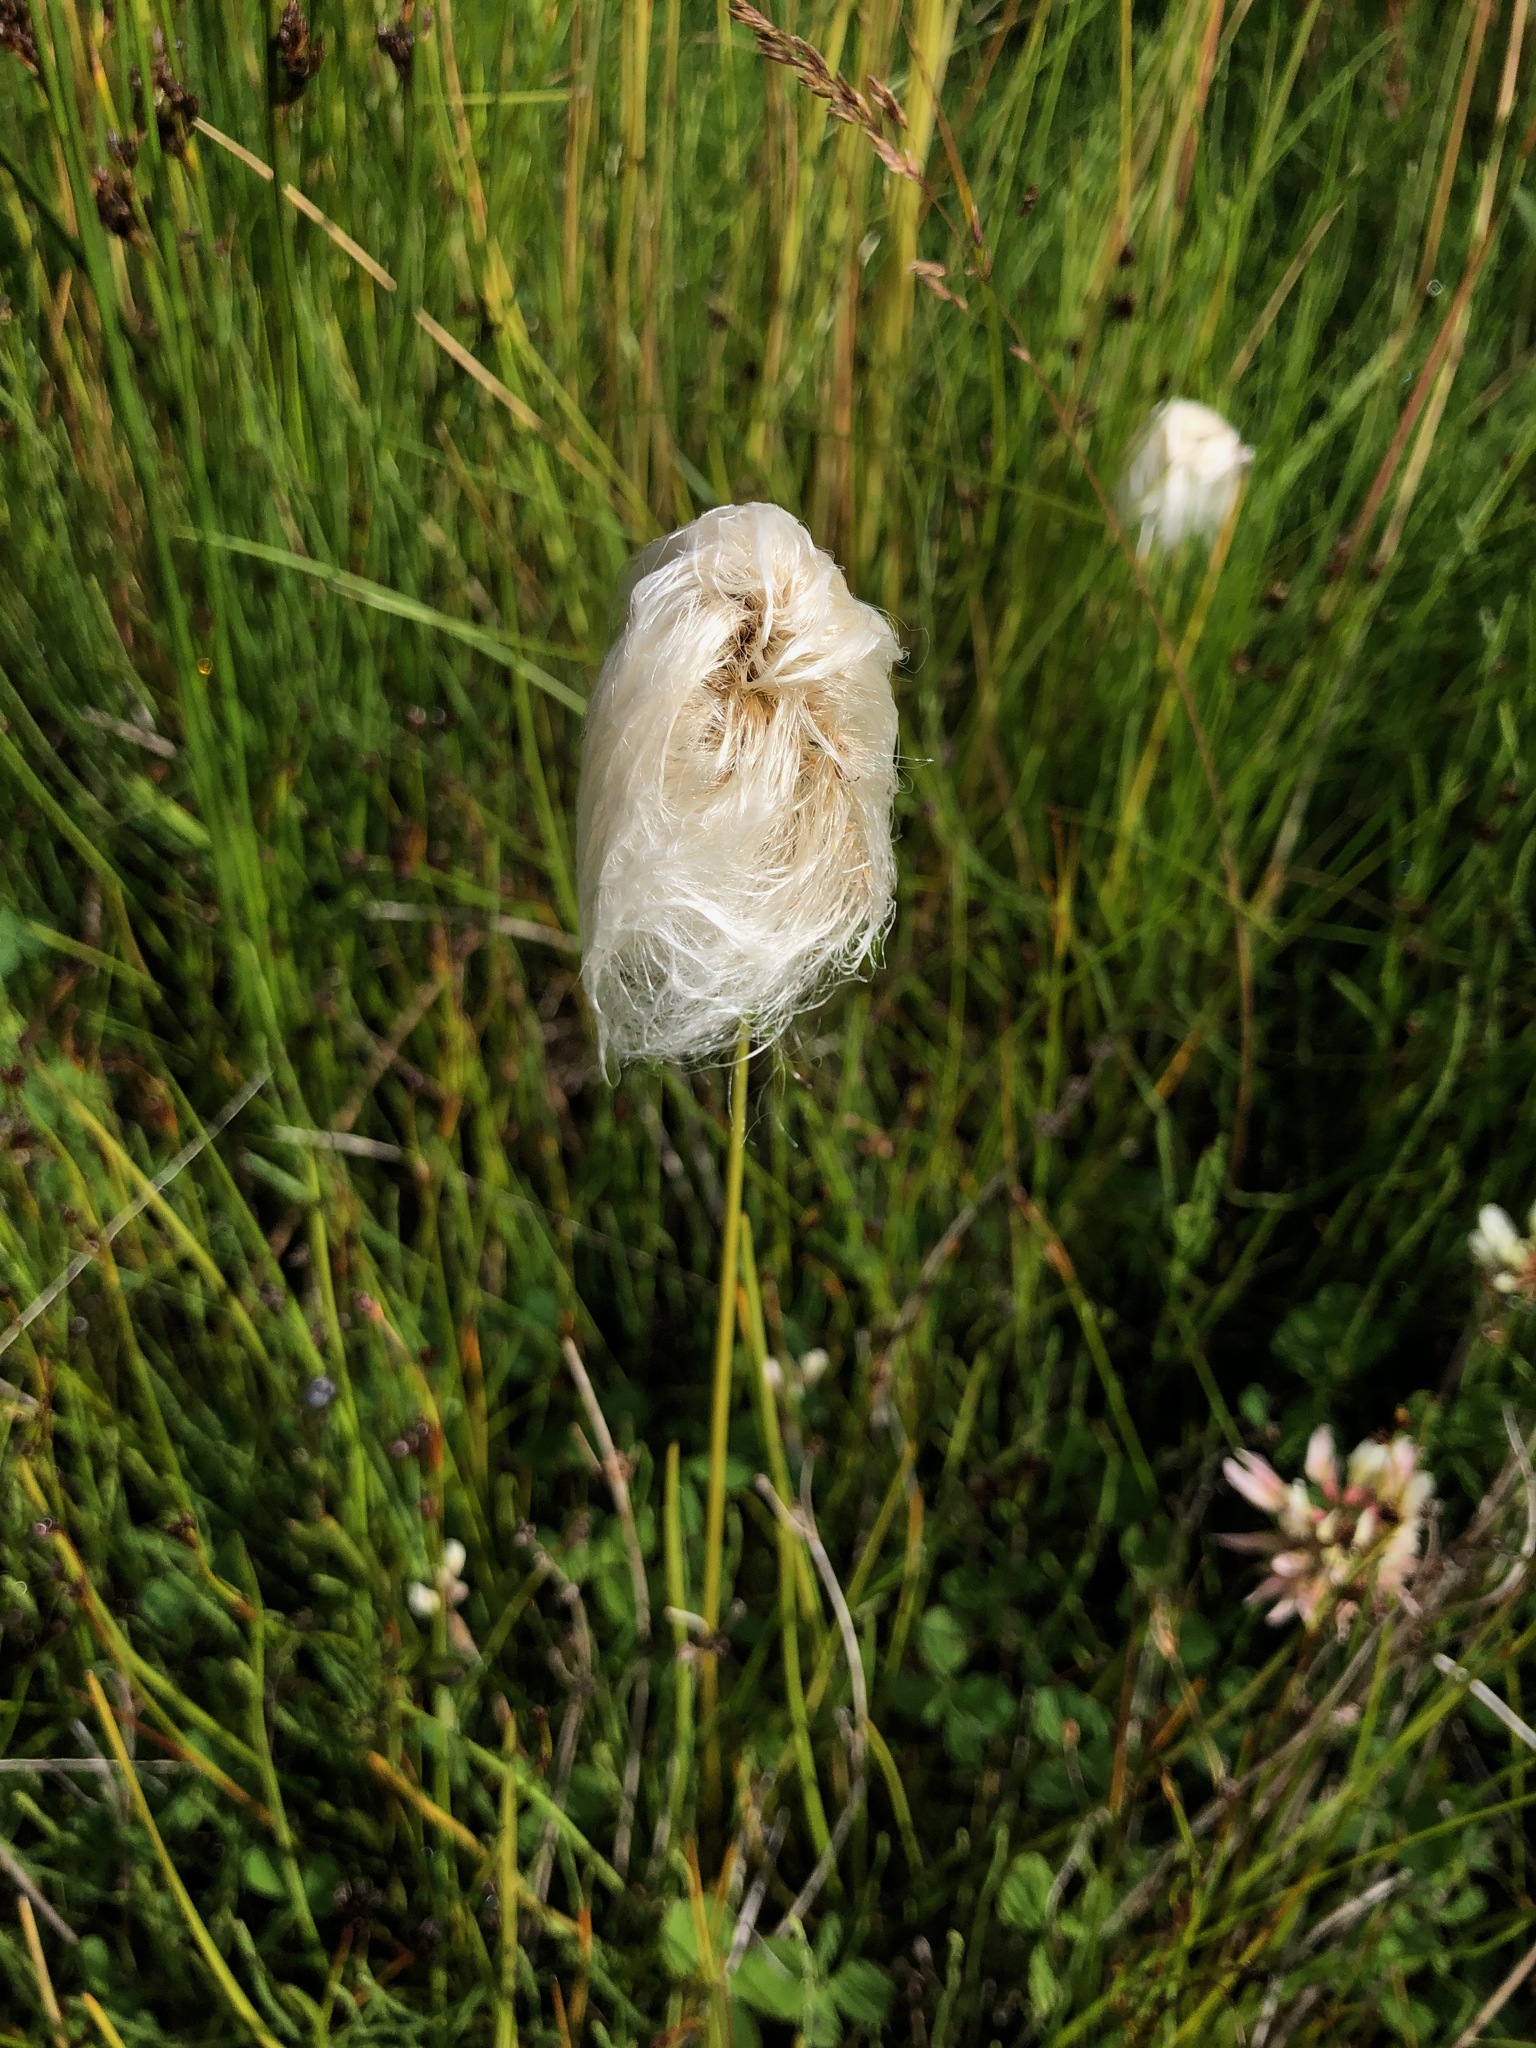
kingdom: Plantae
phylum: Tracheophyta
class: Liliopsida
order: Poales
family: Cyperaceae
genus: Eriophorum
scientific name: Eriophorum scheuchzeri
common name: Scheuchzer's cottongrass
